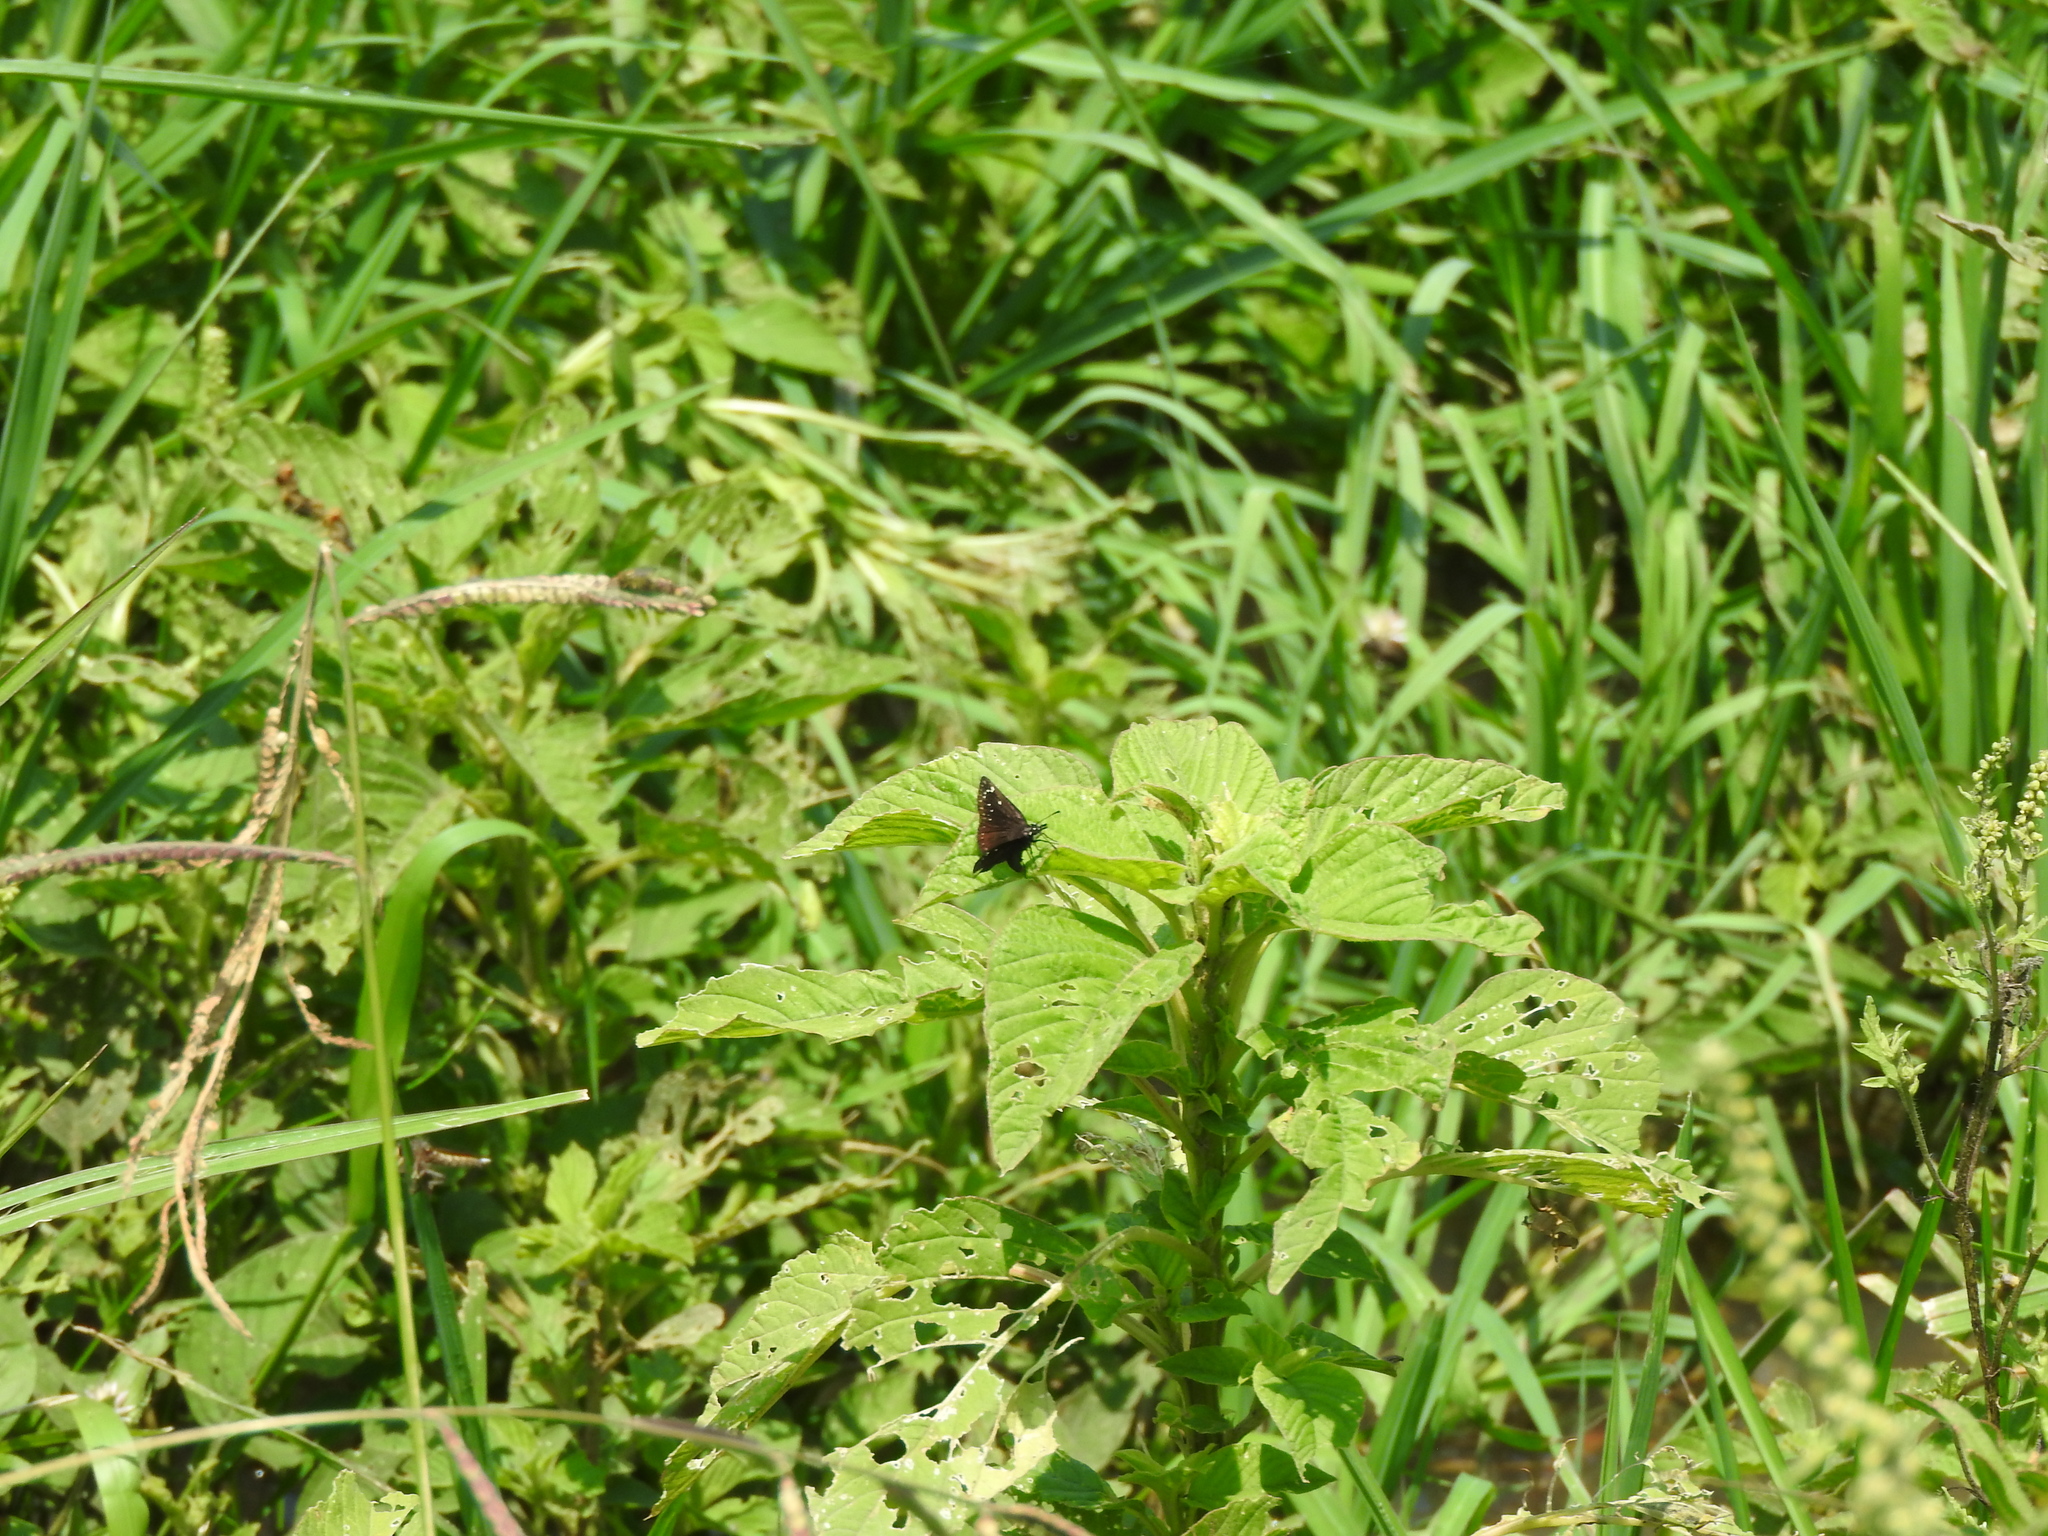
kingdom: Animalia
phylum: Arthropoda
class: Insecta
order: Lepidoptera
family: Hesperiidae
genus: Pholisora
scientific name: Pholisora catullus
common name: Common sootywing
